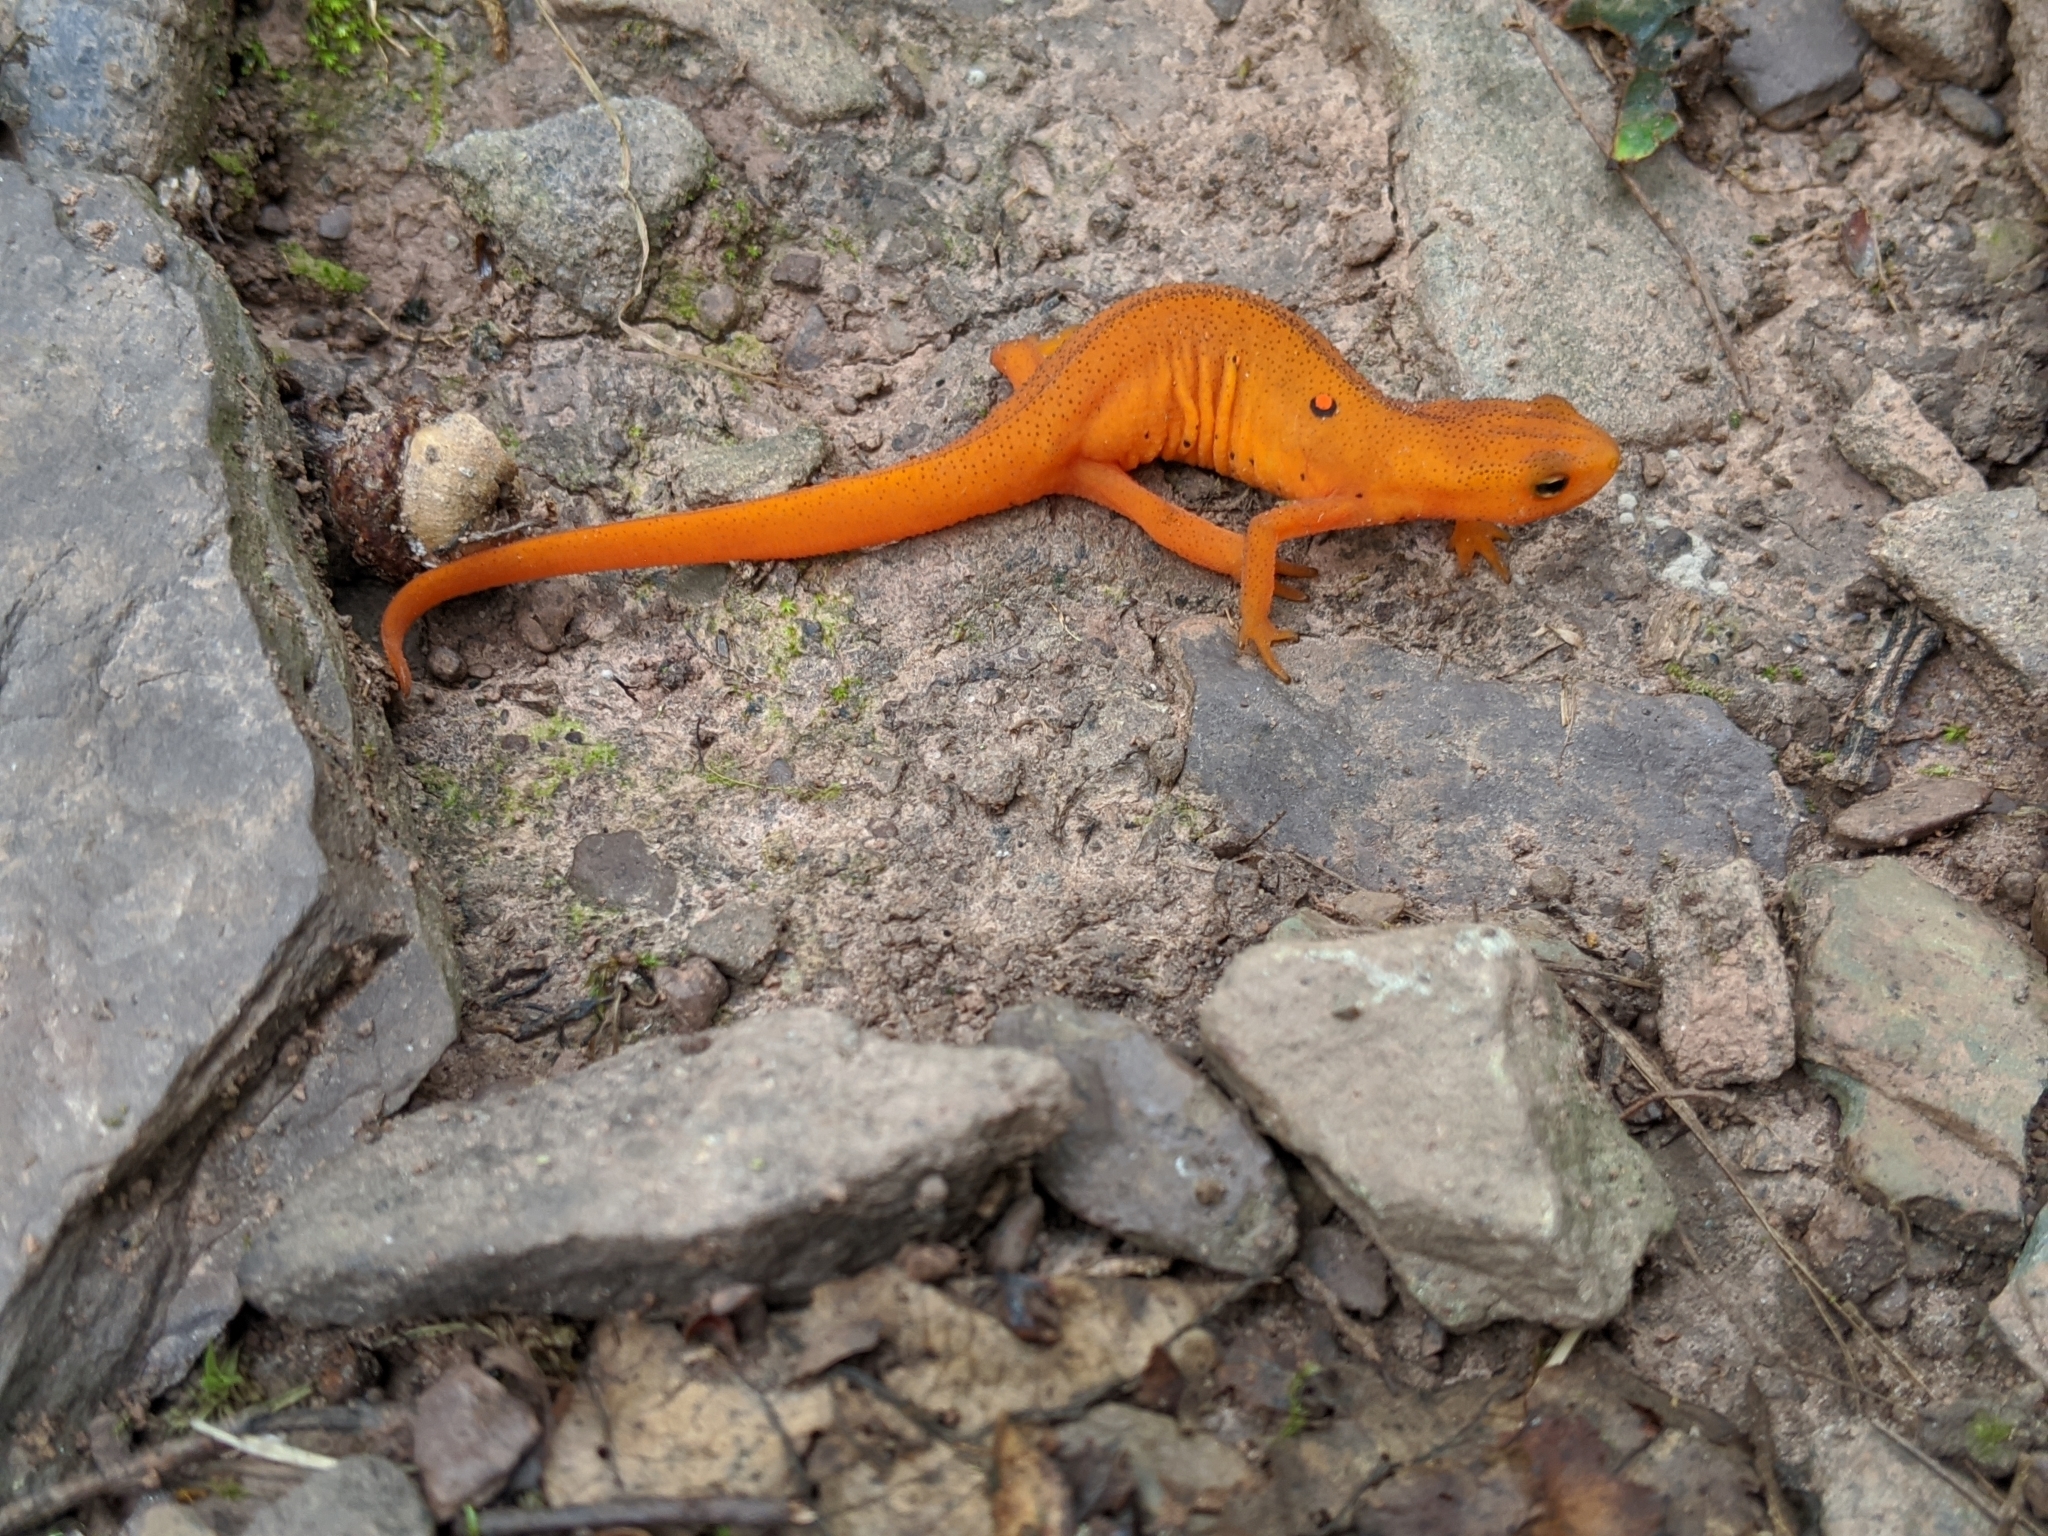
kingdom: Animalia
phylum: Chordata
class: Amphibia
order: Caudata
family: Salamandridae
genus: Notophthalmus
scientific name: Notophthalmus viridescens
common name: Eastern newt
